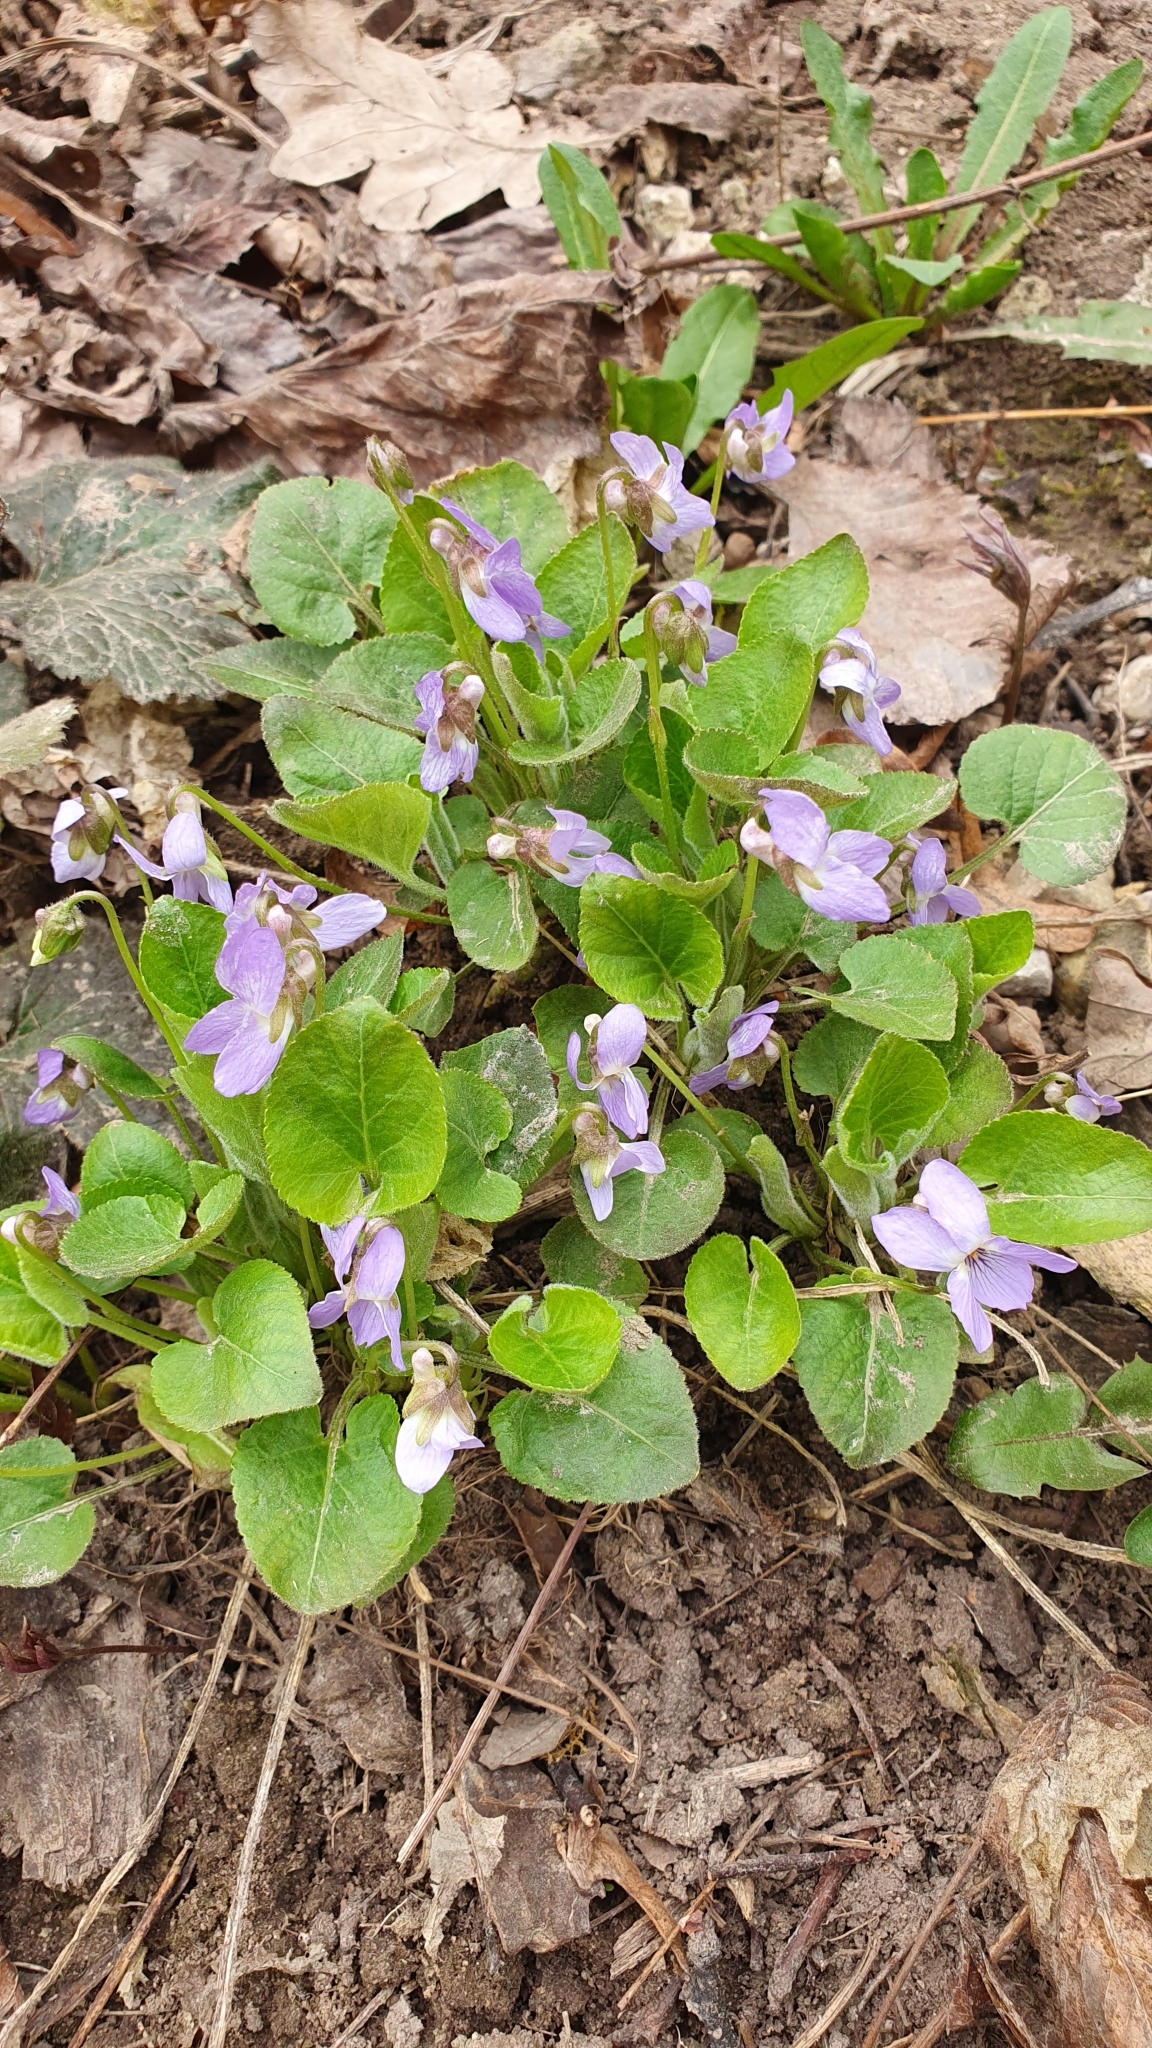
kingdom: Plantae
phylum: Tracheophyta
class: Magnoliopsida
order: Malpighiales
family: Violaceae
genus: Viola
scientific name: Viola collina
